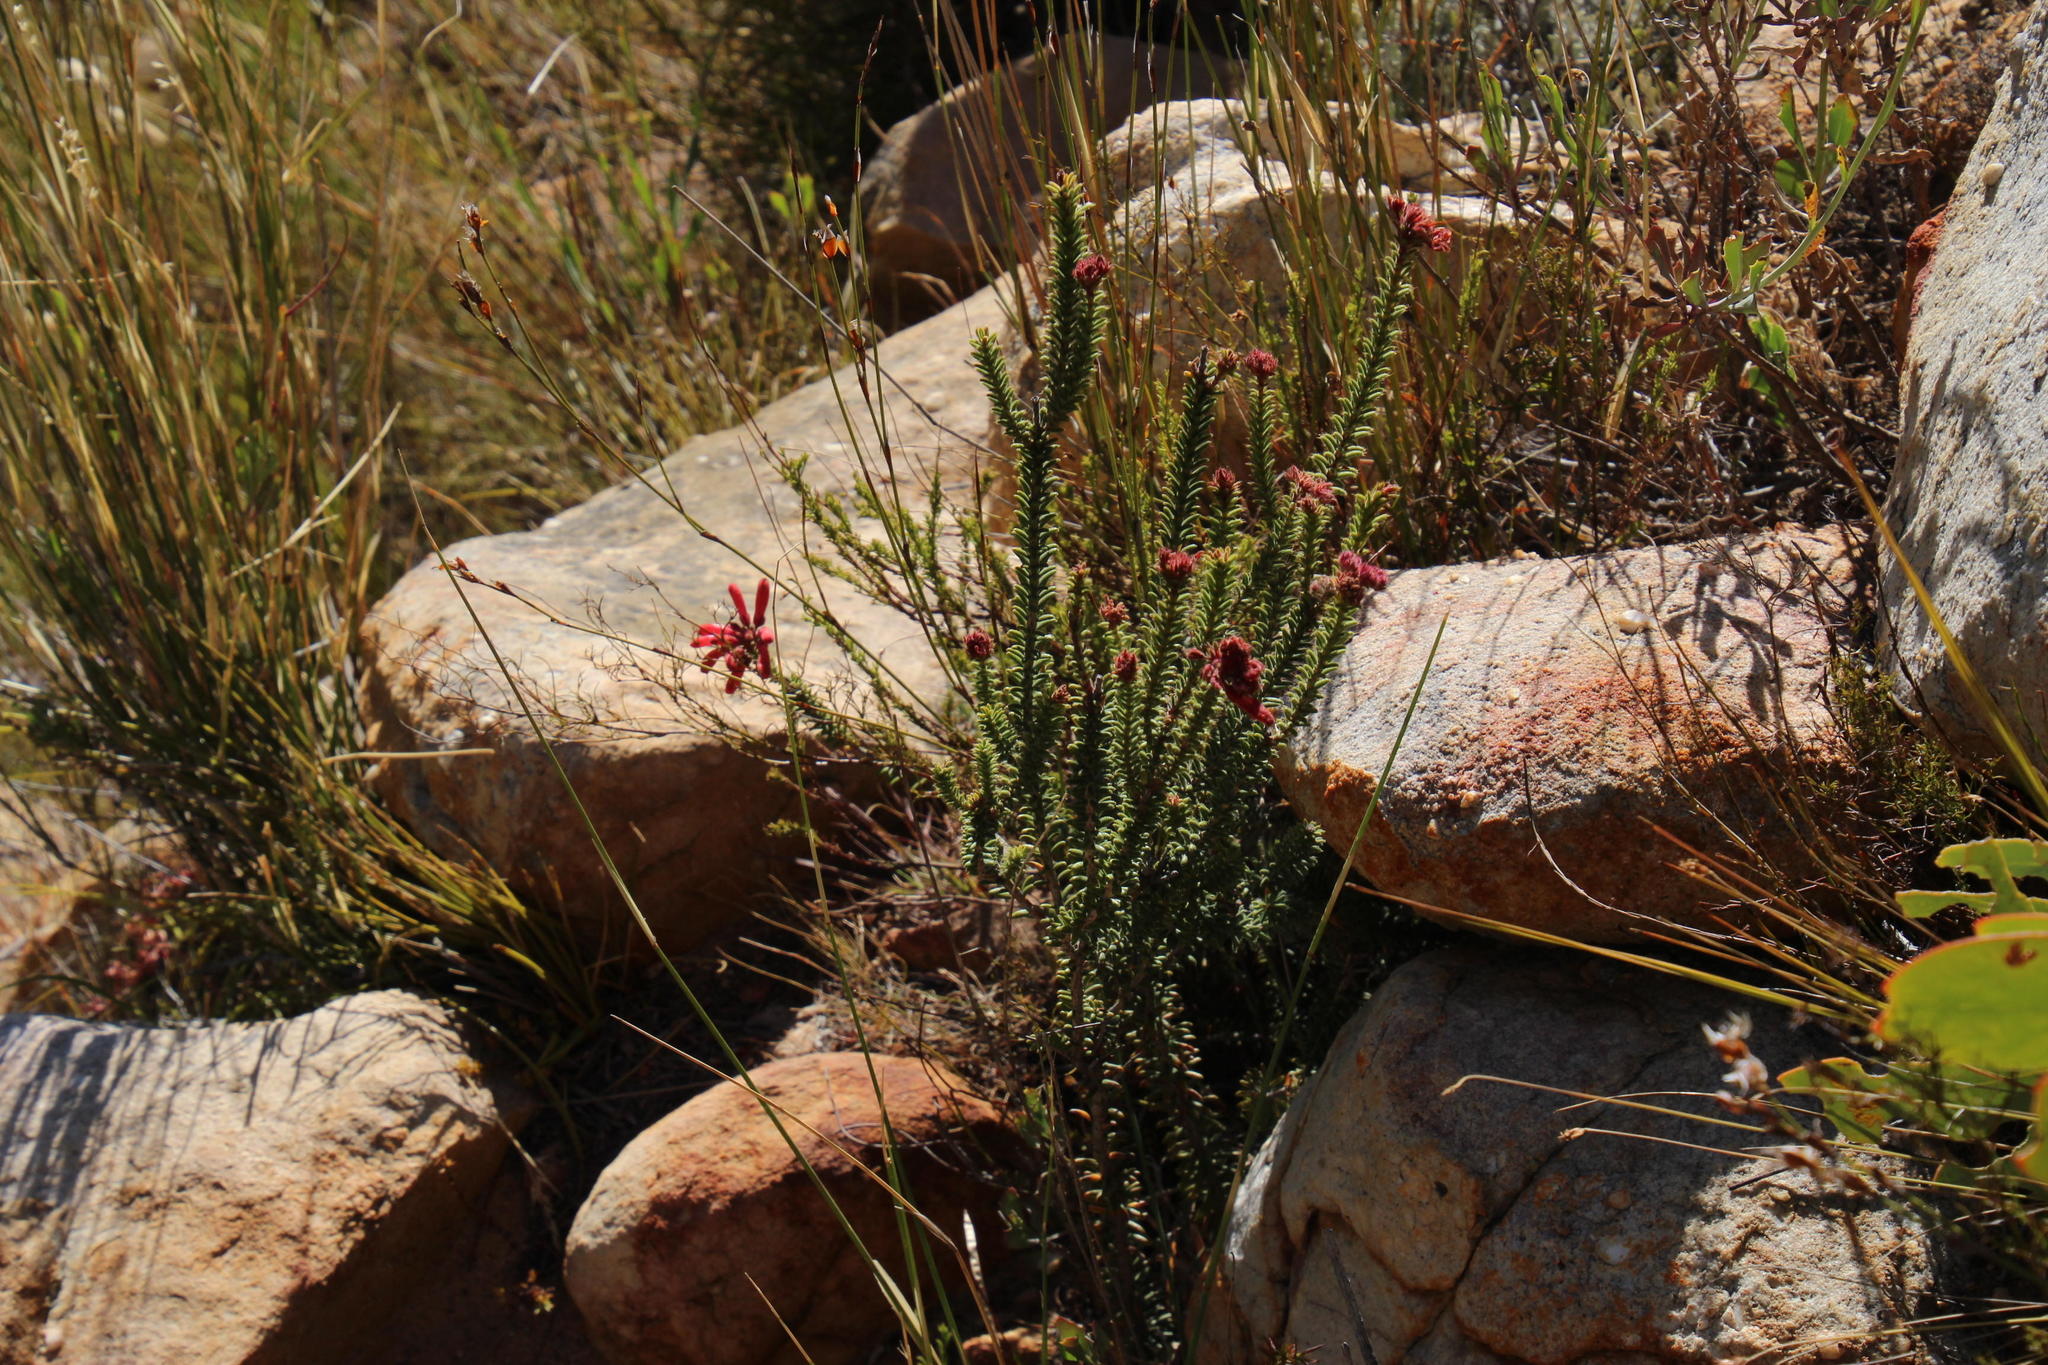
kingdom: Plantae
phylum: Tracheophyta
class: Magnoliopsida
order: Ericales
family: Ericaceae
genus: Erica
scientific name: Erica cerinthoides
